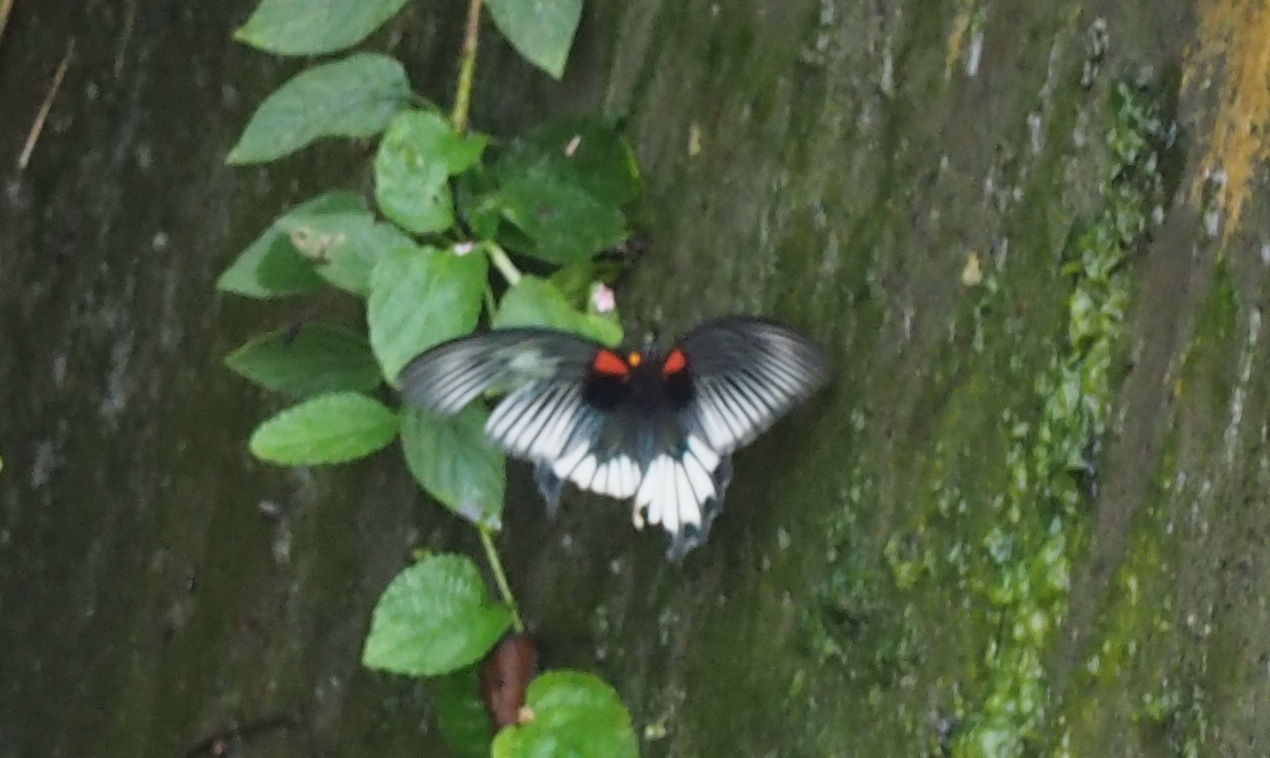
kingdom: Animalia
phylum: Arthropoda
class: Insecta
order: Lepidoptera
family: Papilionidae
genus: Papilio
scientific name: Papilio memnon
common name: Great mormon
